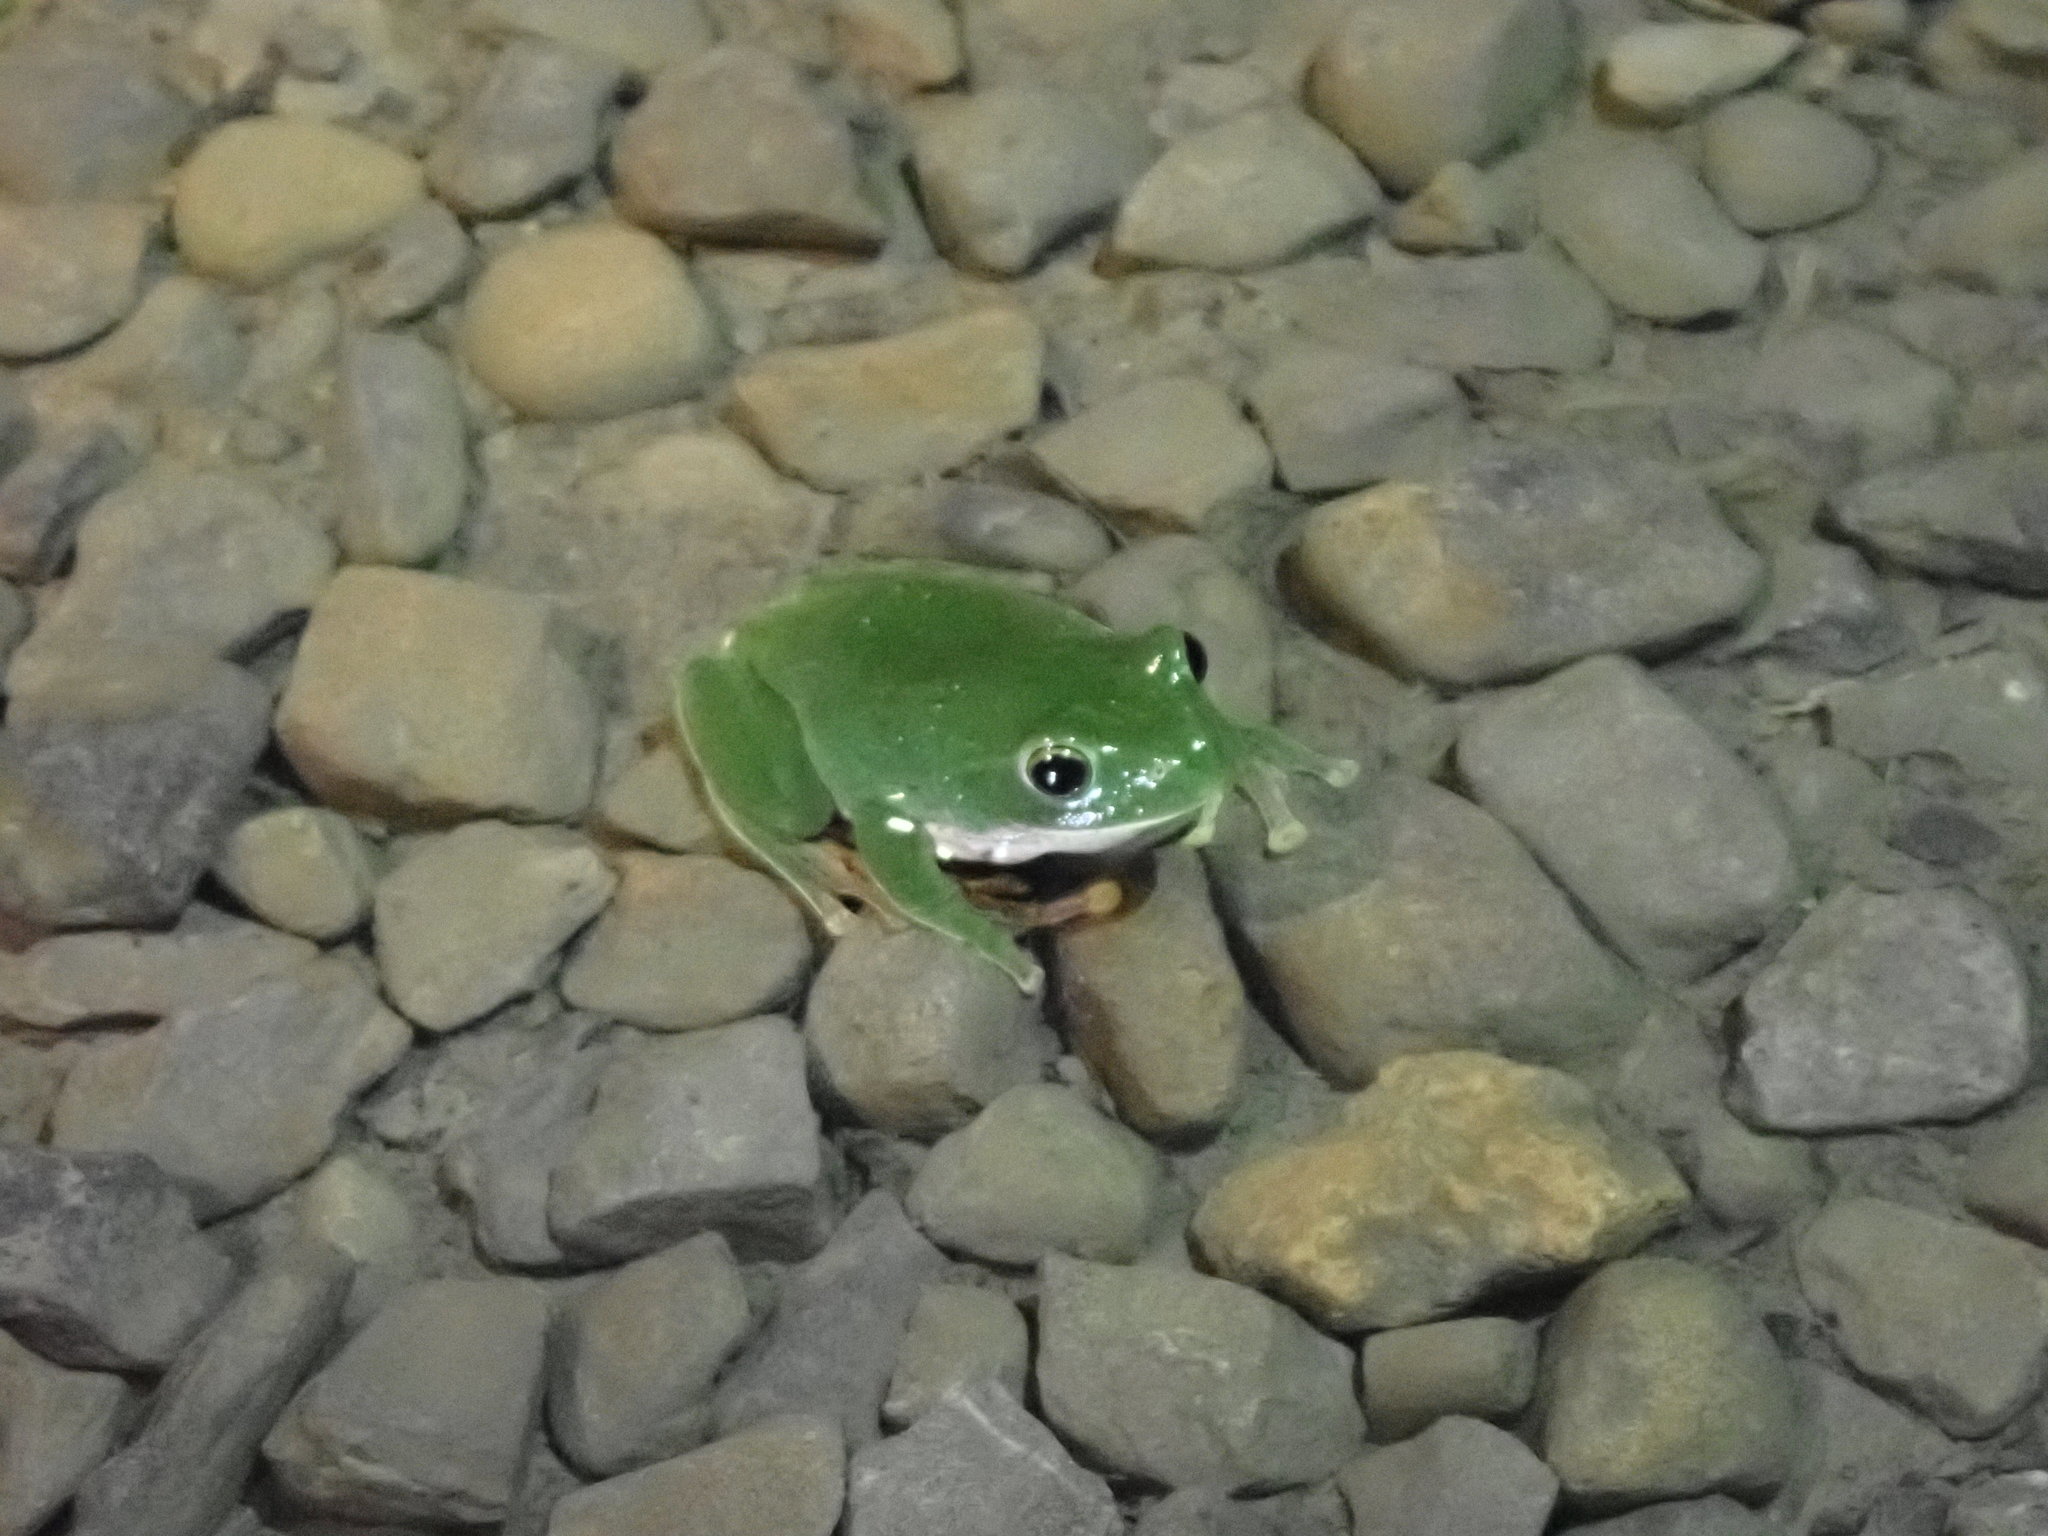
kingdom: Animalia
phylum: Chordata
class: Amphibia
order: Anura
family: Rhacophoridae
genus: Zhangixalus
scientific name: Zhangixalus moltrechti
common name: Moltrecht's treefrog
